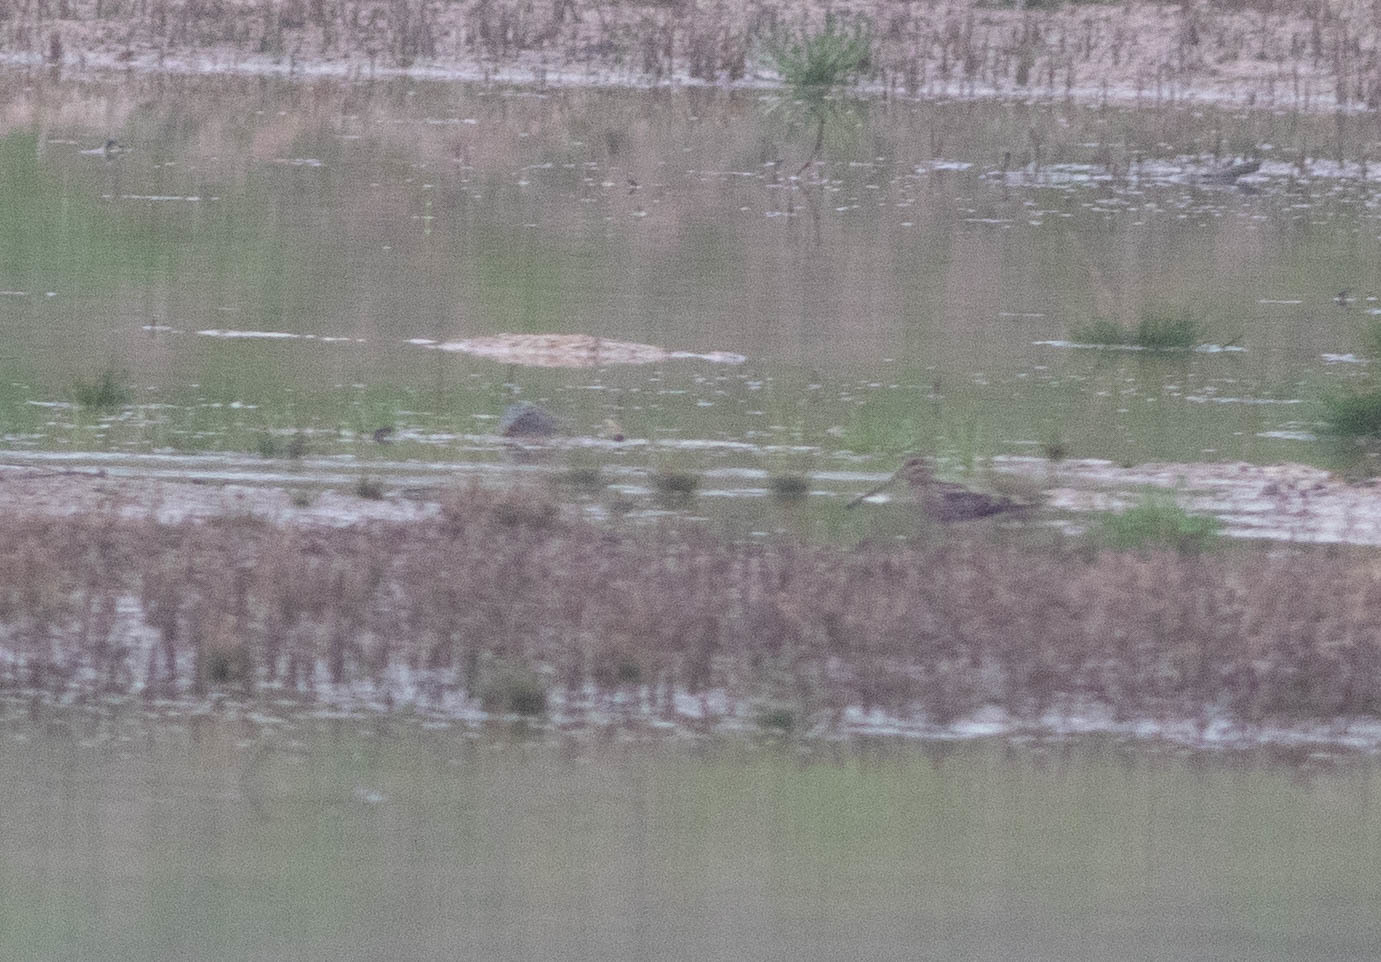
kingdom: Animalia
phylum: Chordata
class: Aves
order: Charadriiformes
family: Scolopacidae
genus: Gallinago
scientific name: Gallinago delicata
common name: Wilson's snipe
